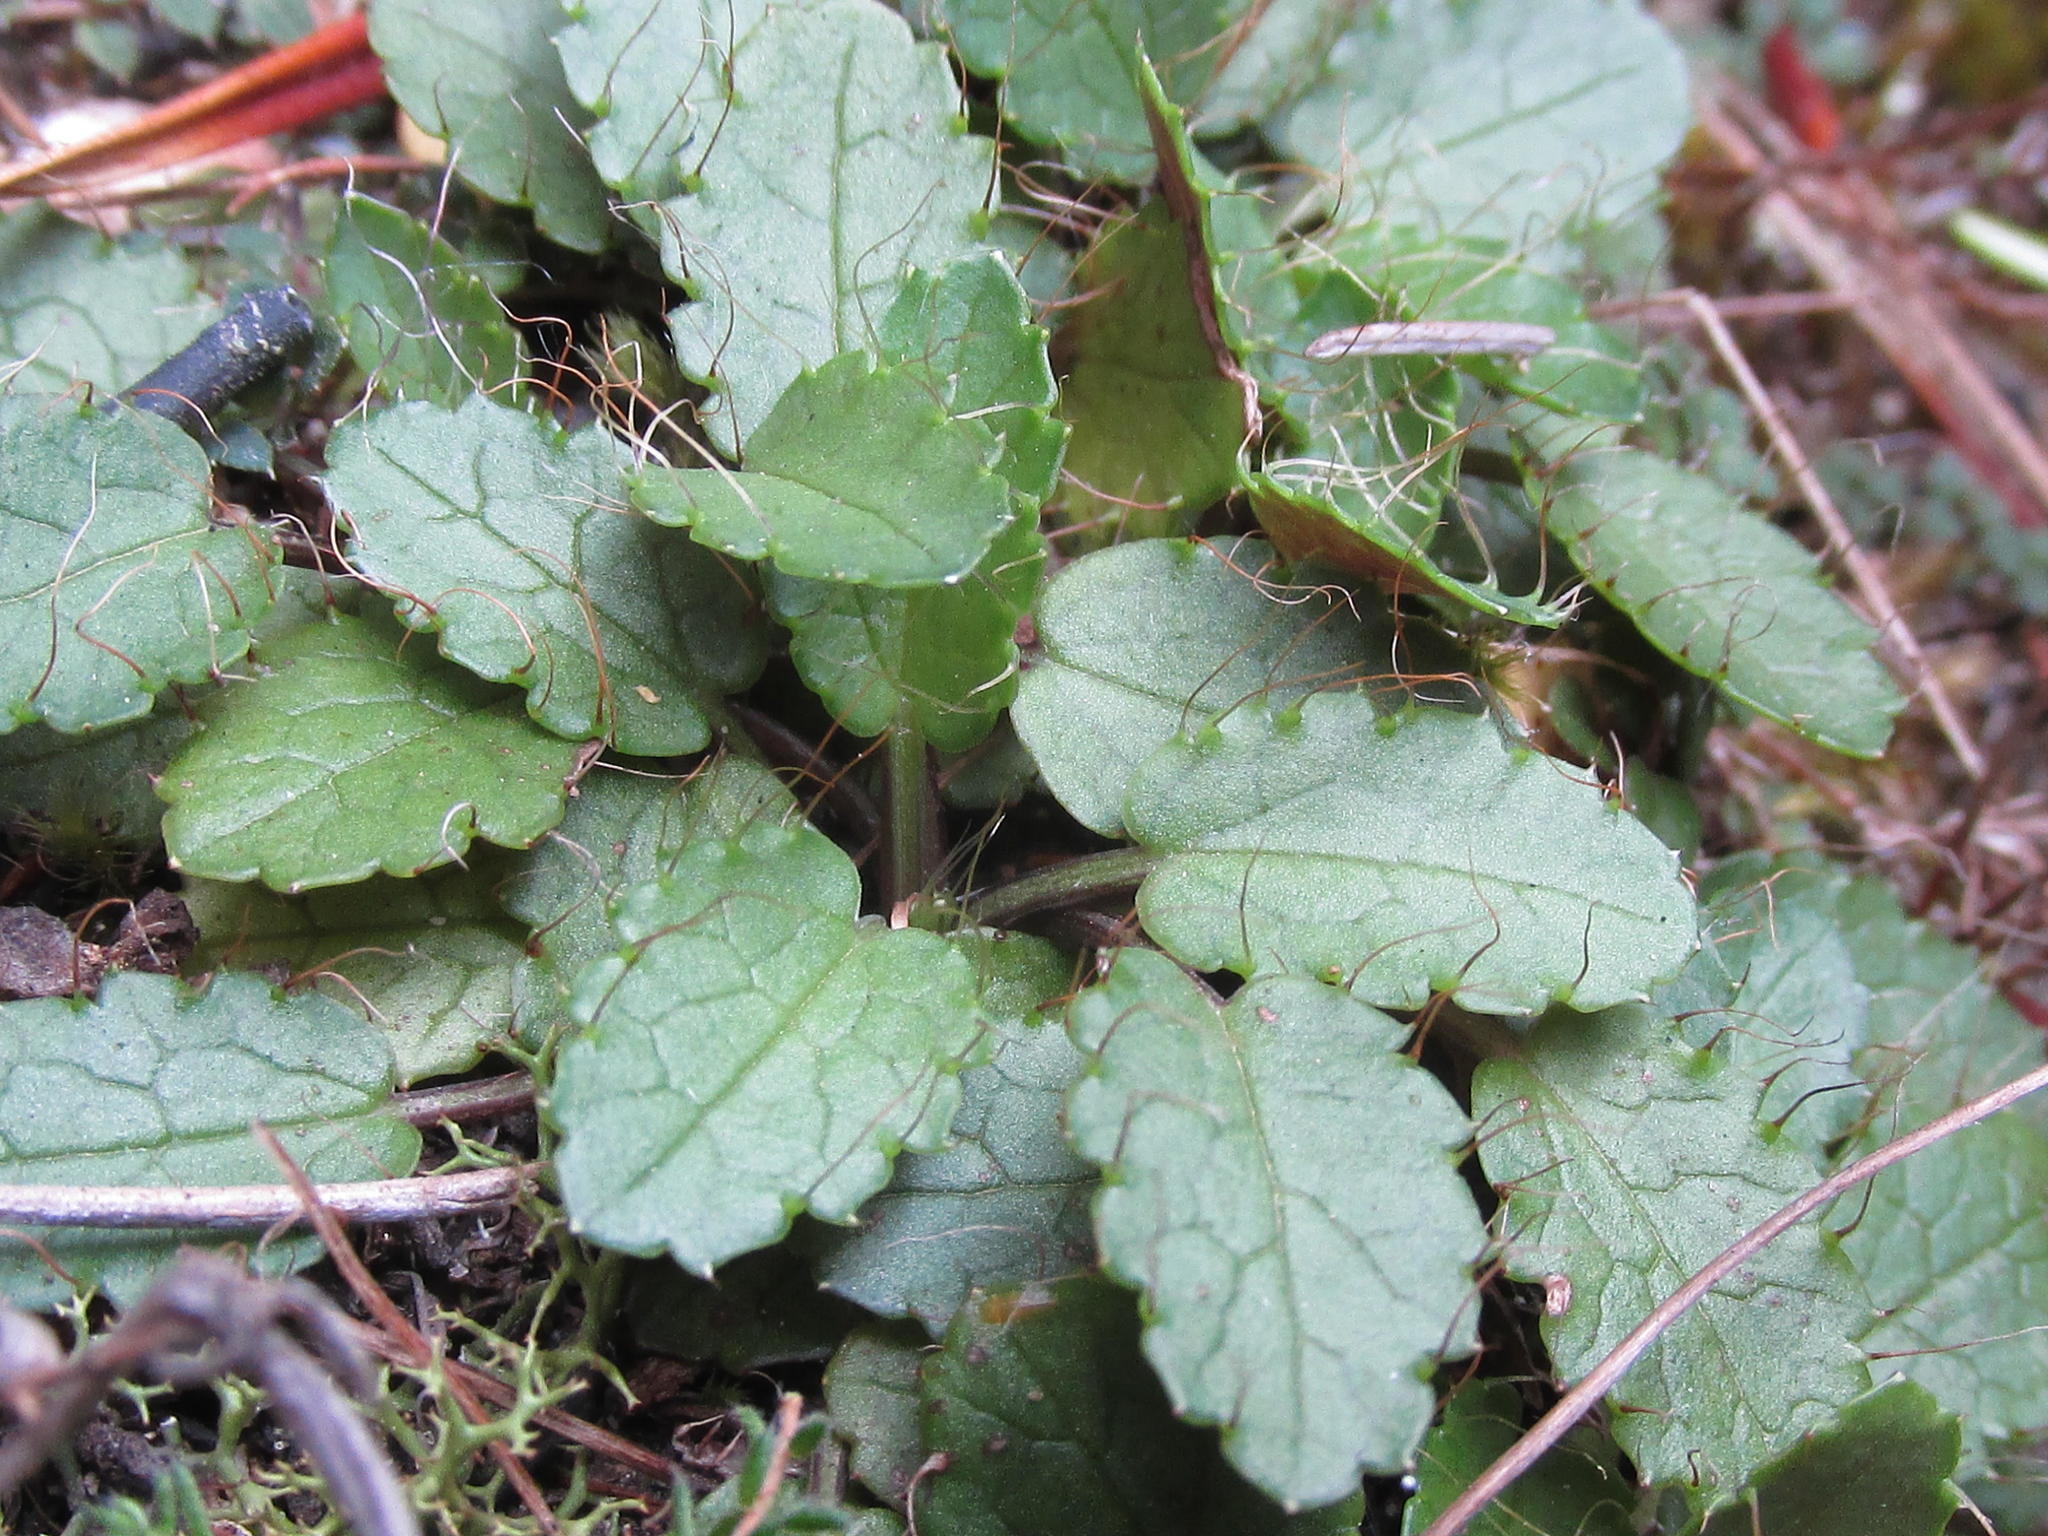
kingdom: Plantae
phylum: Tracheophyta
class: Magnoliopsida
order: Apiales
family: Apiaceae
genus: Alepidea
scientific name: Alepidea delicatula
